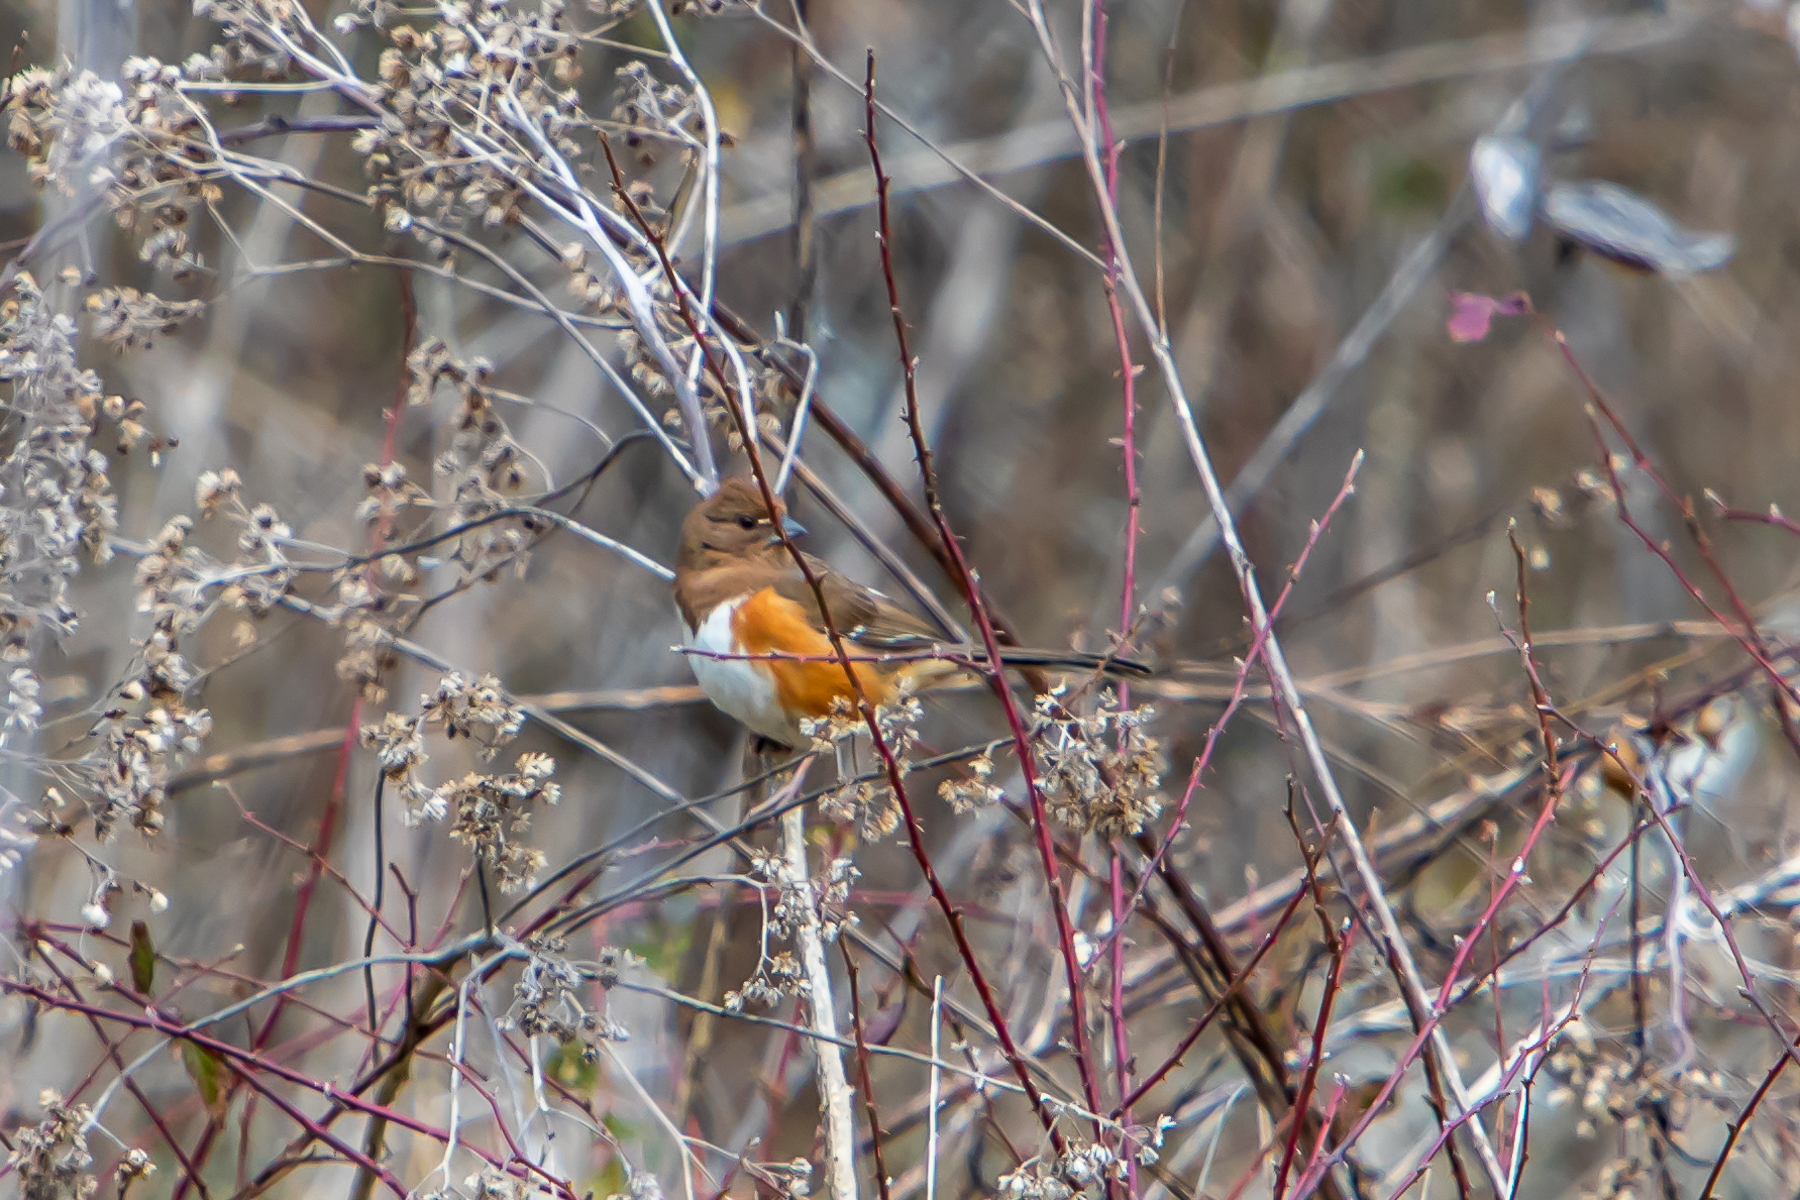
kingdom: Animalia
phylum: Chordata
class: Aves
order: Passeriformes
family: Passerellidae
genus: Pipilo
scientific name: Pipilo erythrophthalmus
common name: Eastern towhee
